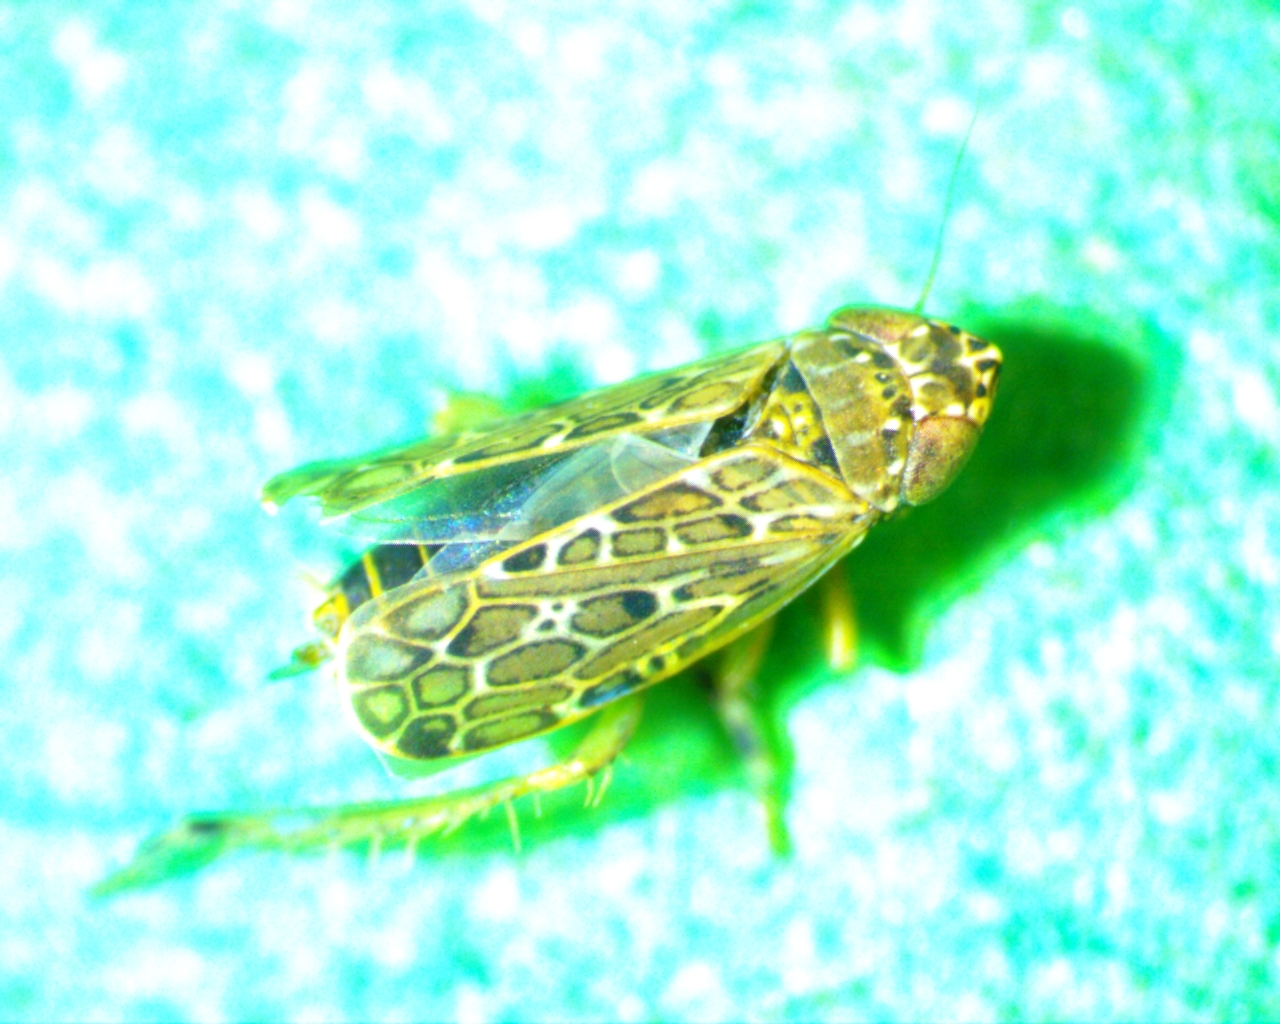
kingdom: Animalia
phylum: Arthropoda
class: Insecta
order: Hemiptera
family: Cicadellidae
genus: Polyamia
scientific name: Polyamia weedi
